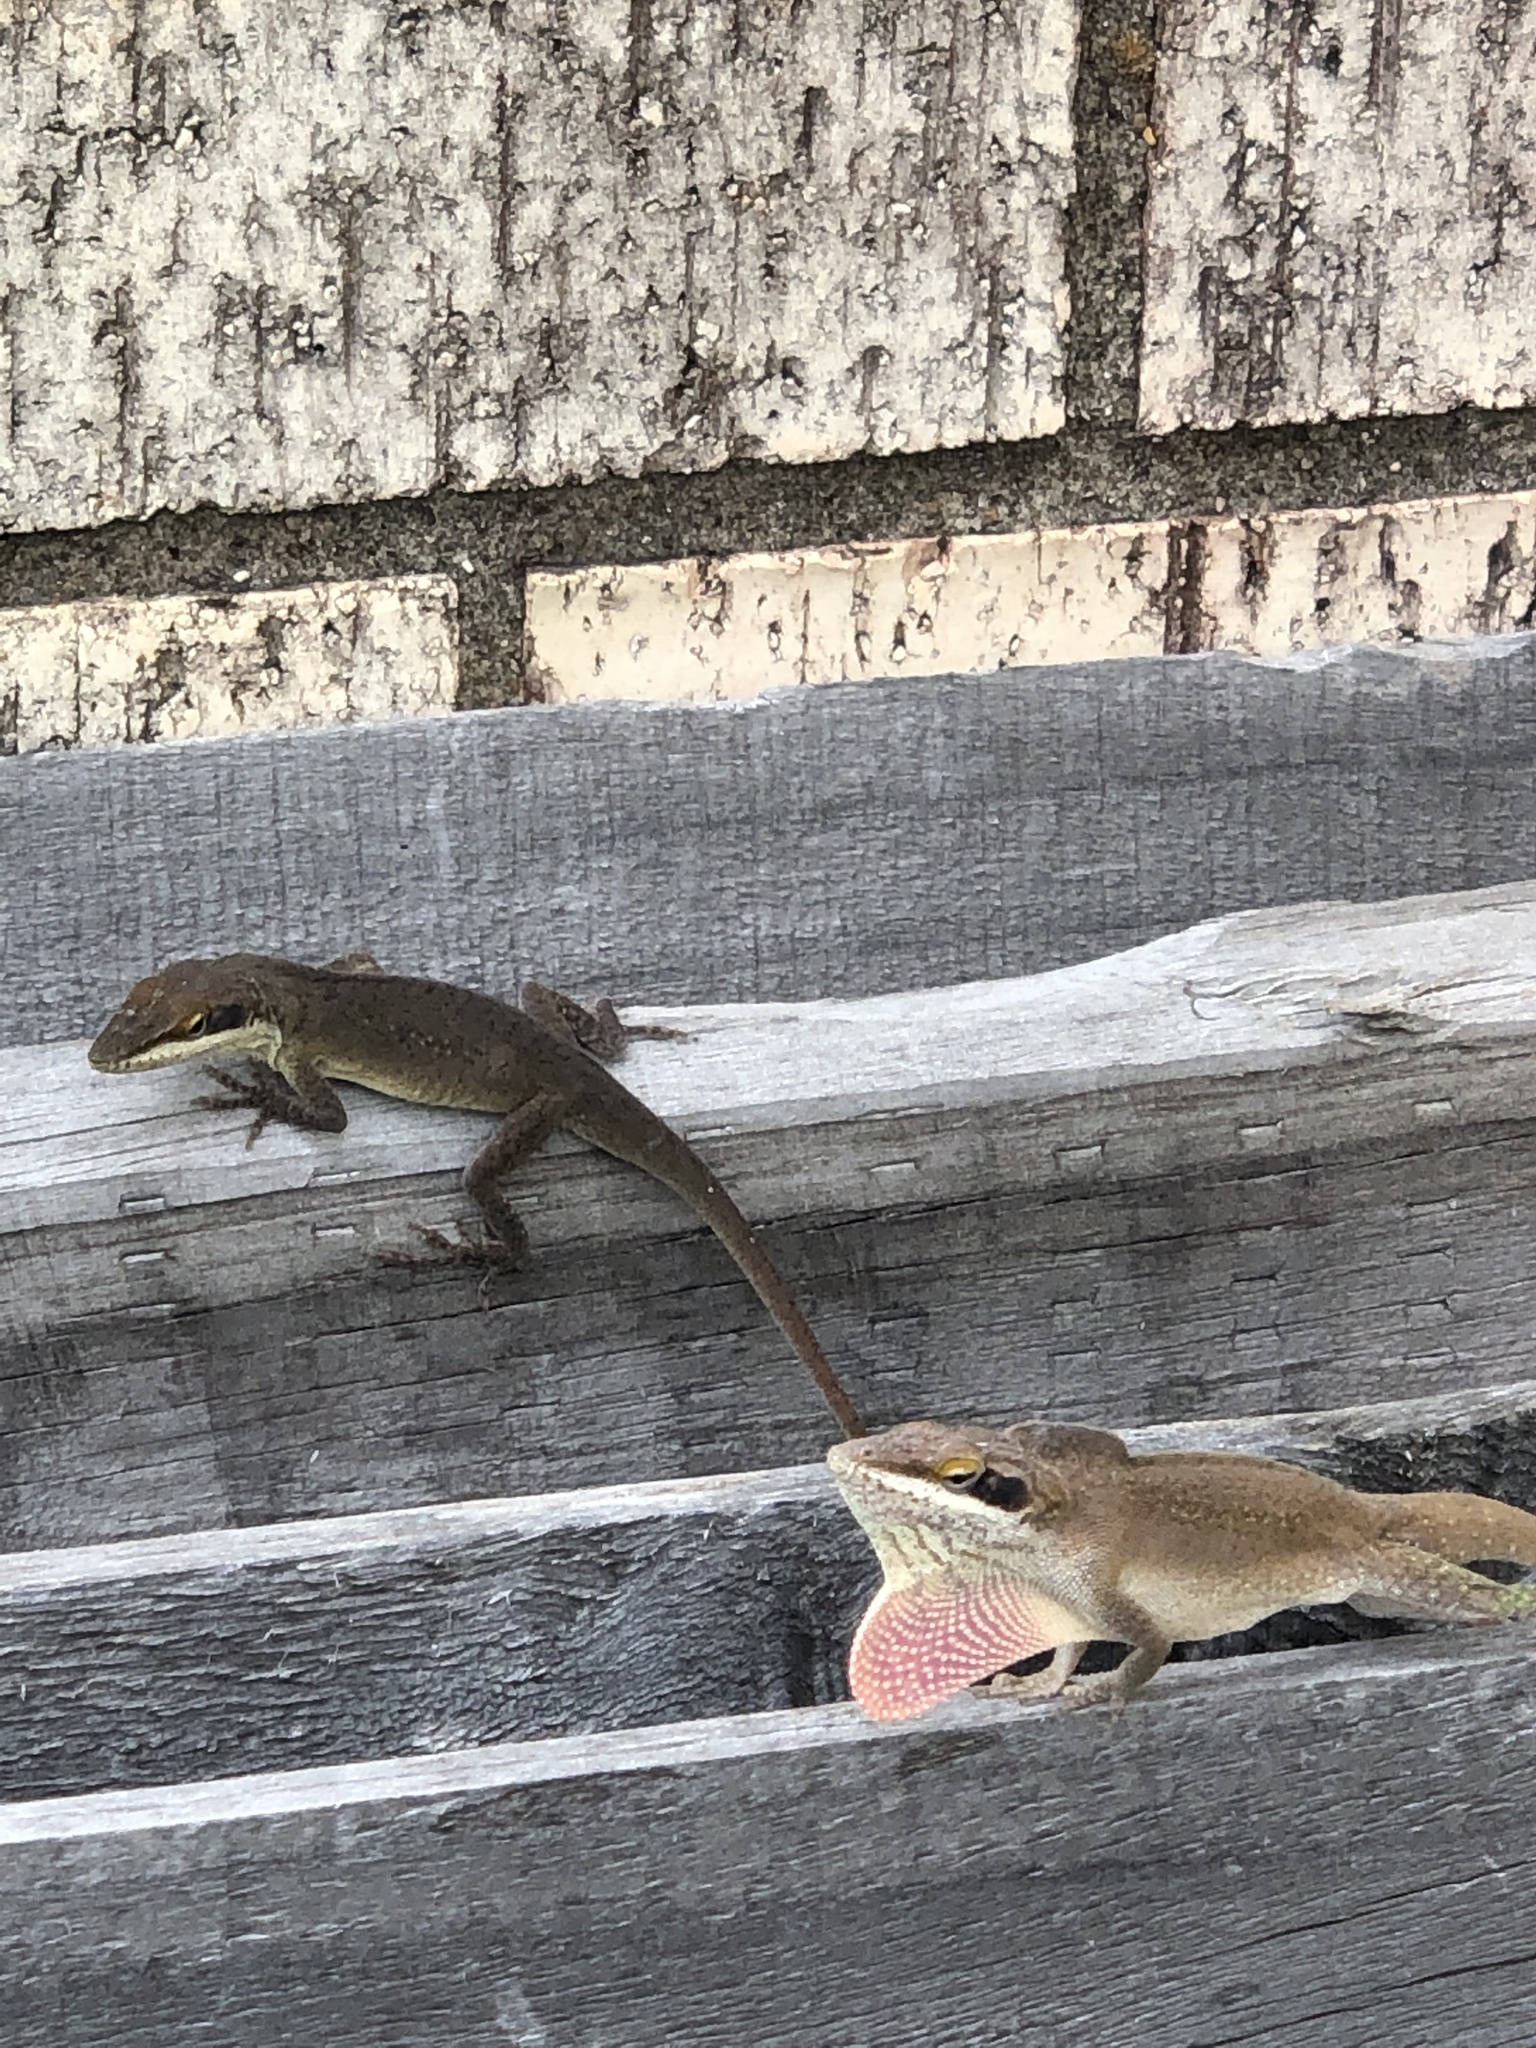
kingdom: Animalia
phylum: Chordata
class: Squamata
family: Dactyloidae
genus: Anolis
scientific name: Anolis carolinensis
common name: Green anole
